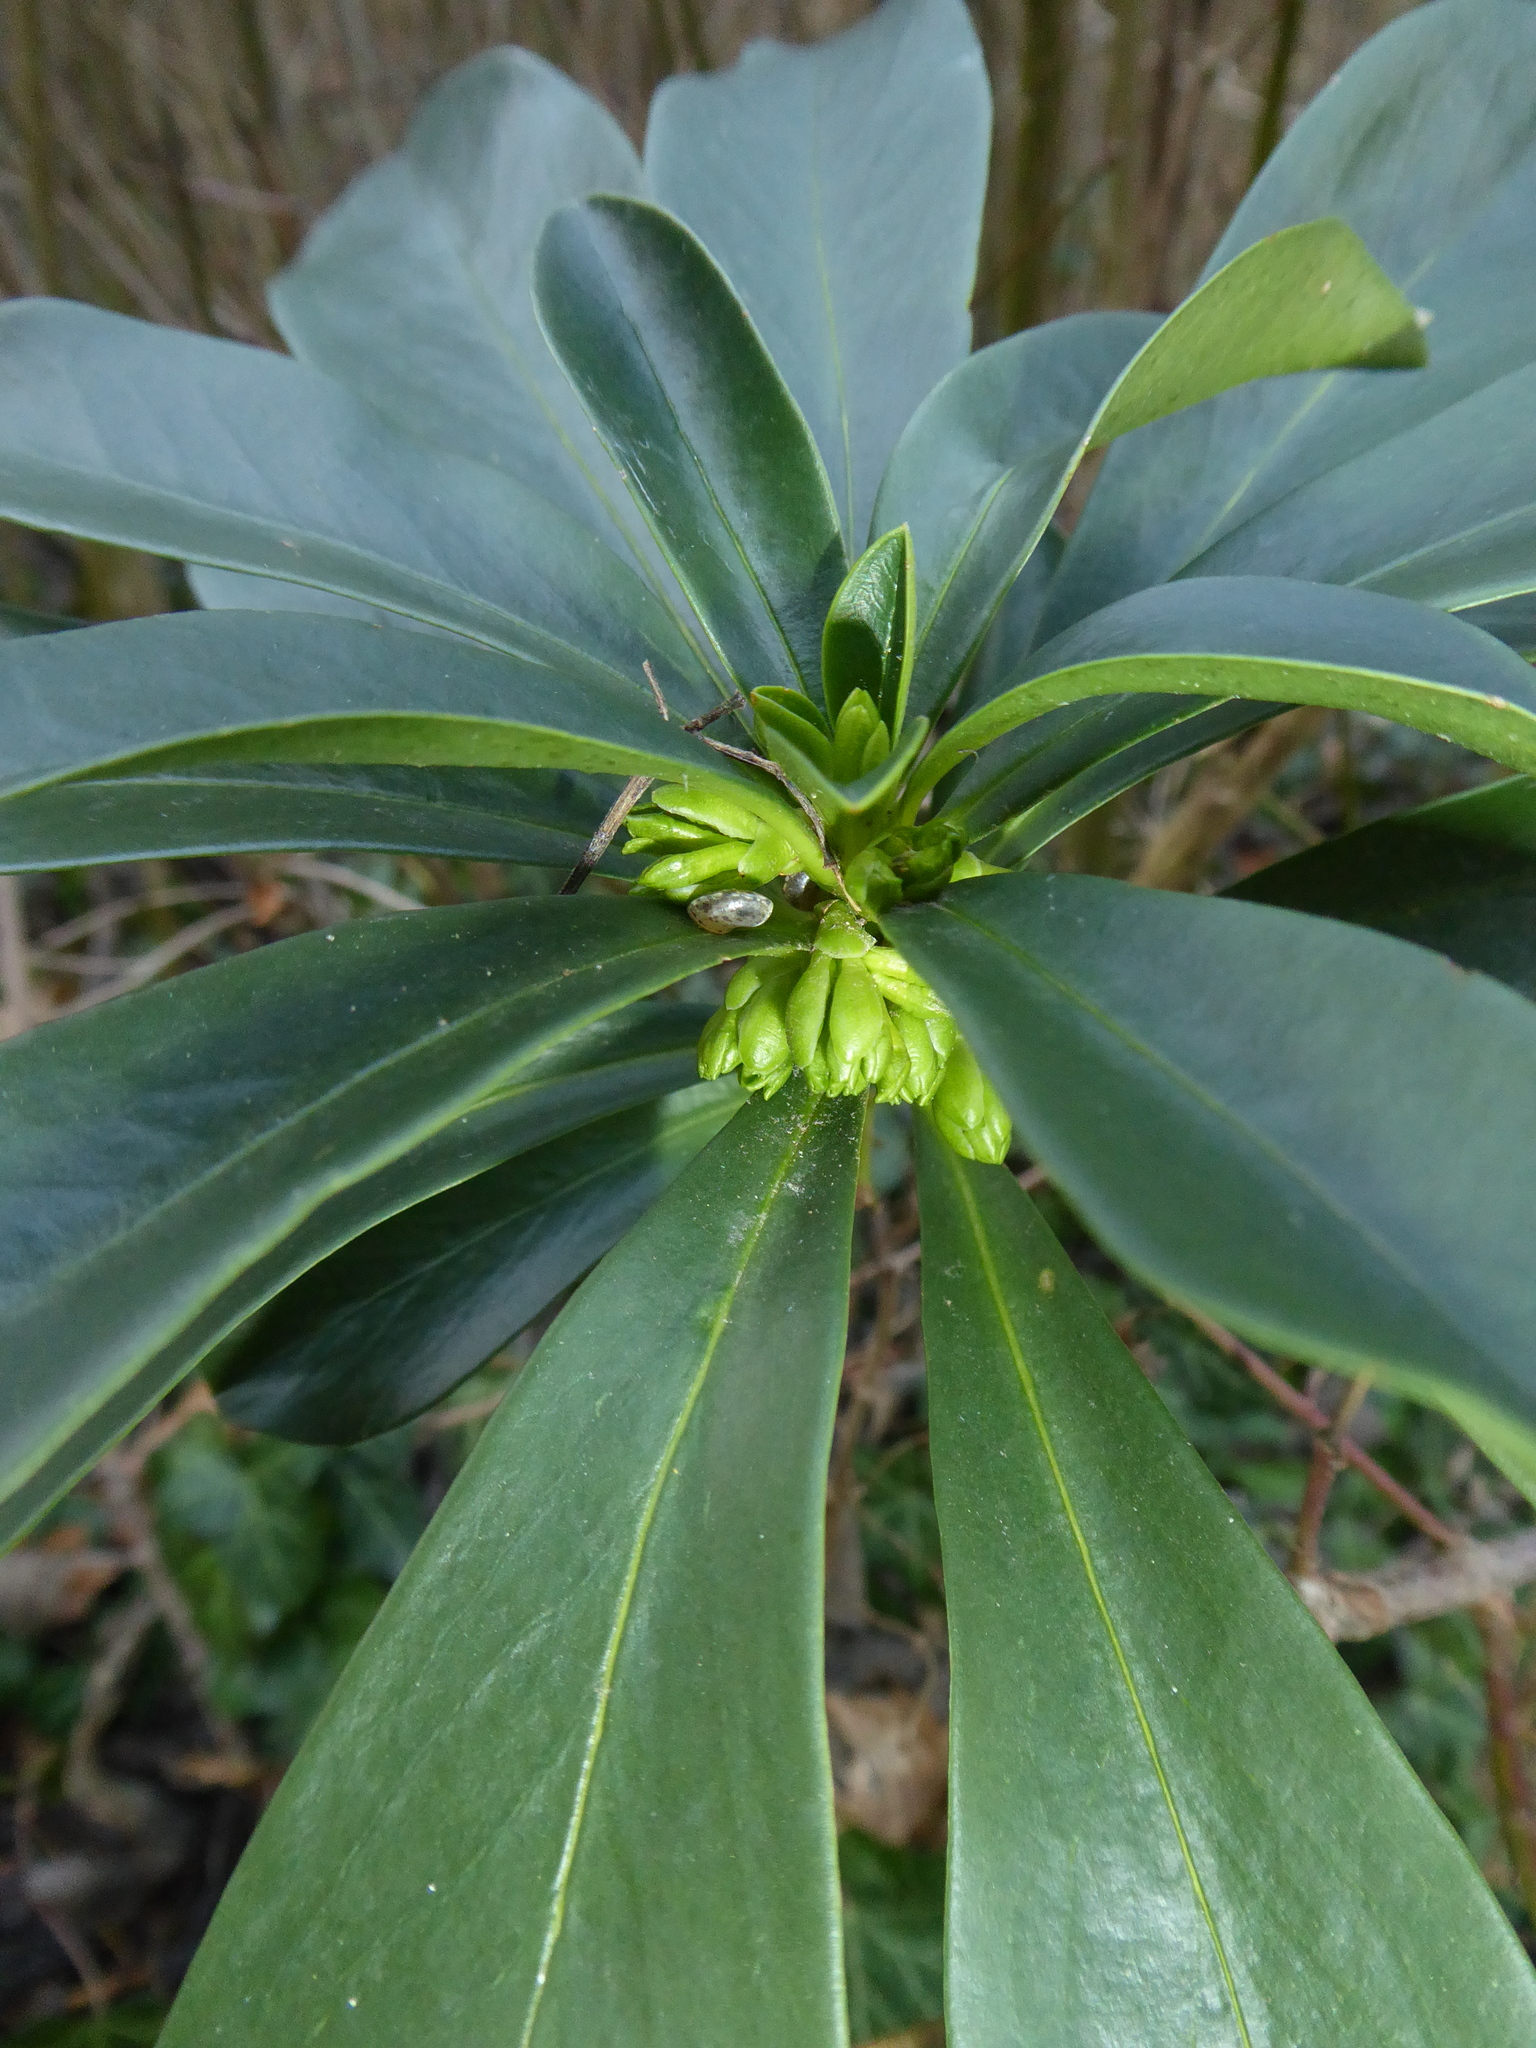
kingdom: Plantae
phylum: Tracheophyta
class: Magnoliopsida
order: Malvales
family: Thymelaeaceae
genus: Daphne
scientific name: Daphne laureola
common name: Spurge-laurel
